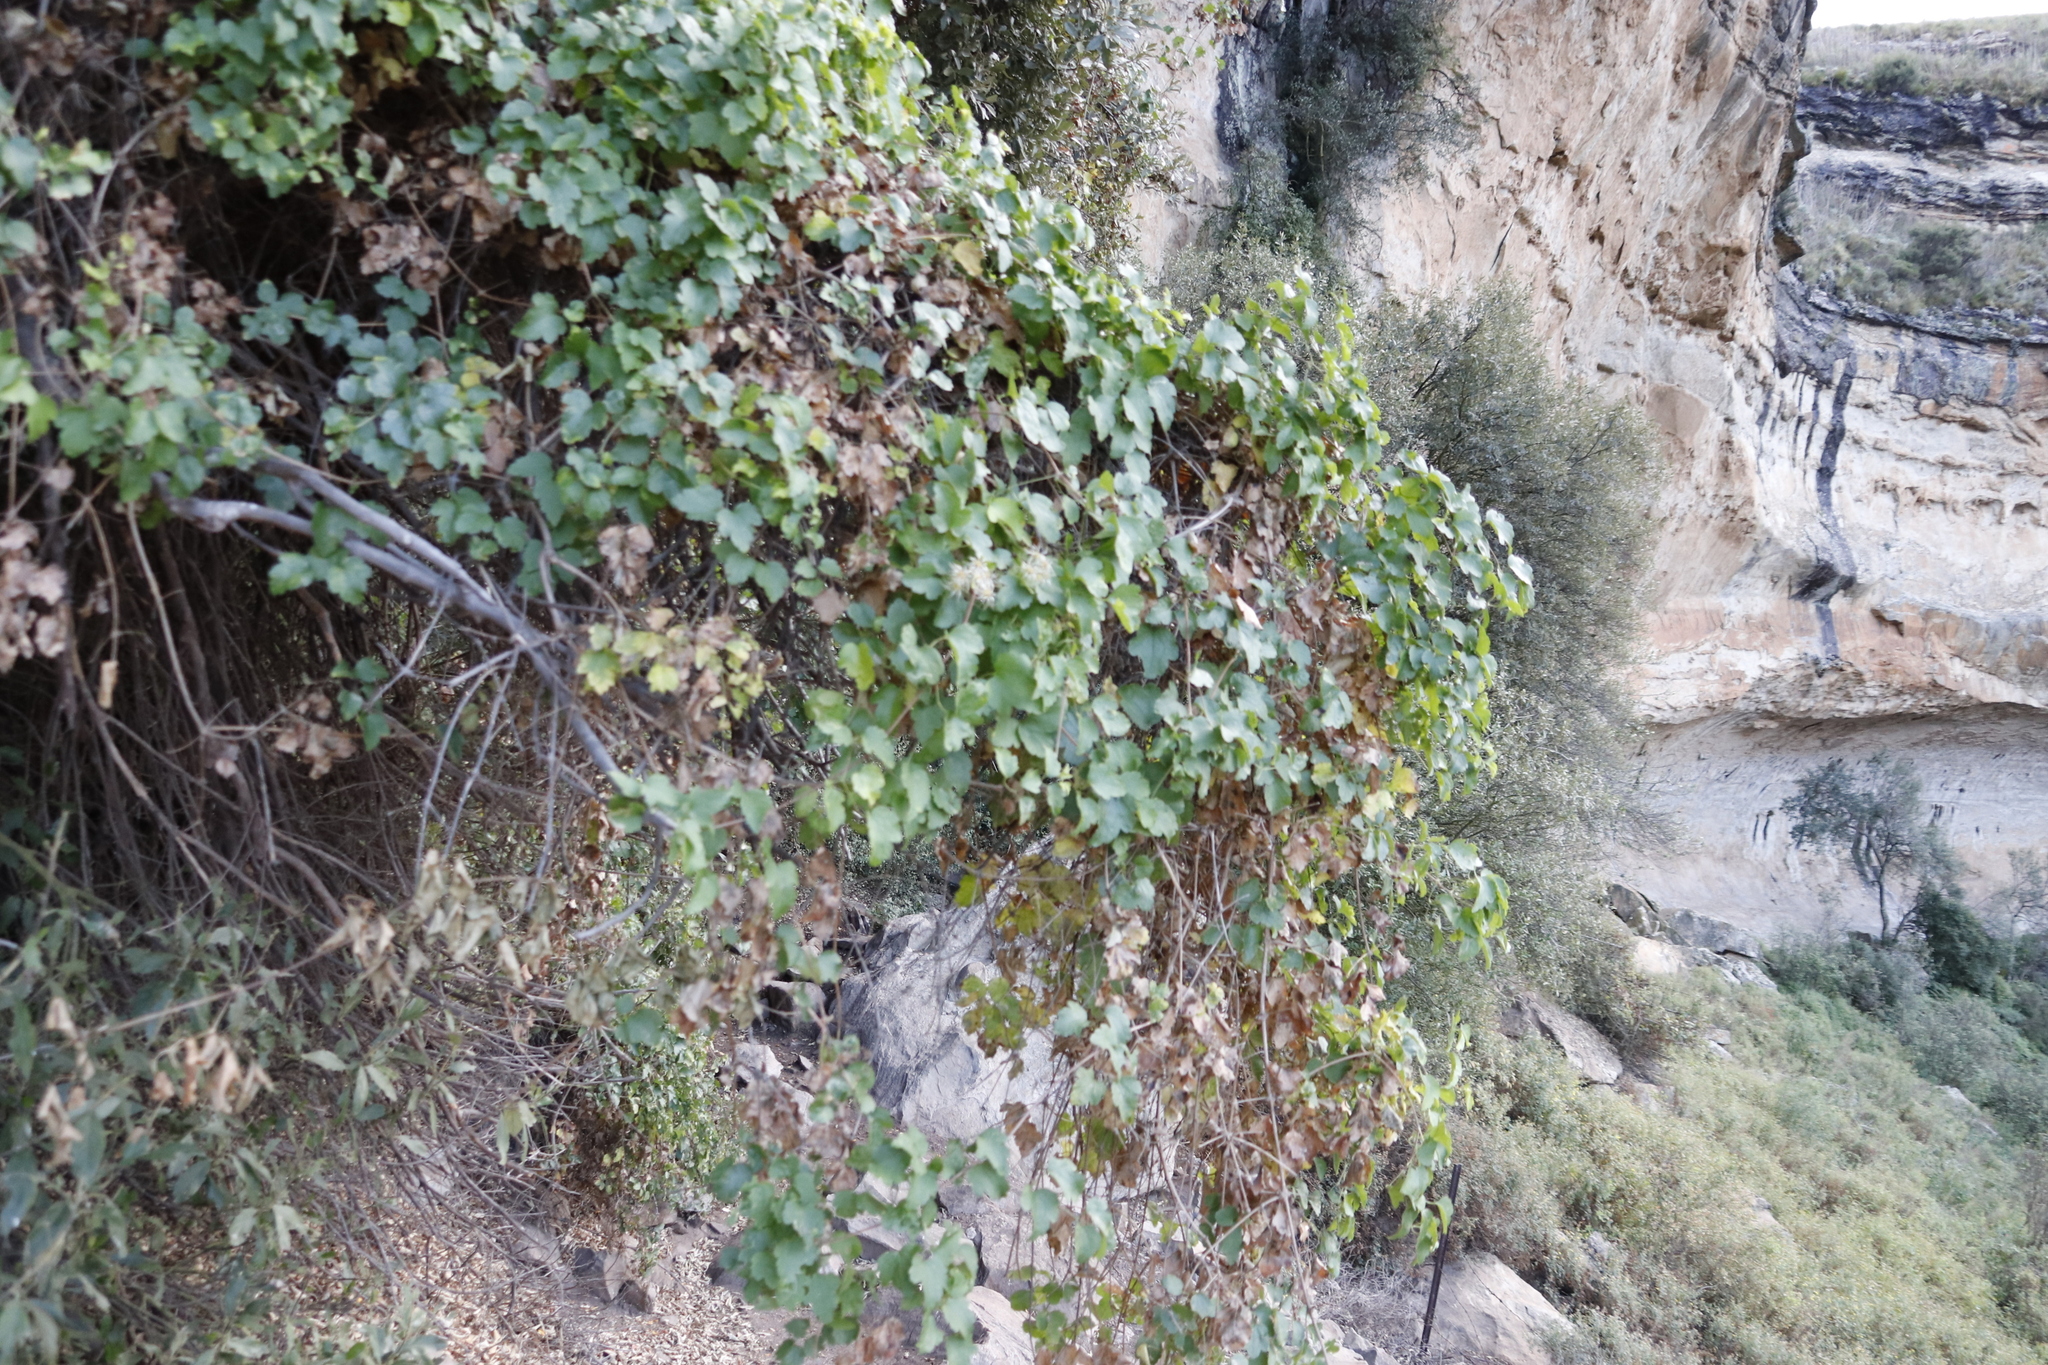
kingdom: Plantae
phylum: Tracheophyta
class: Magnoliopsida
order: Ranunculales
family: Ranunculaceae
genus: Clematis
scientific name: Clematis brachiata
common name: Traveler's-joy
